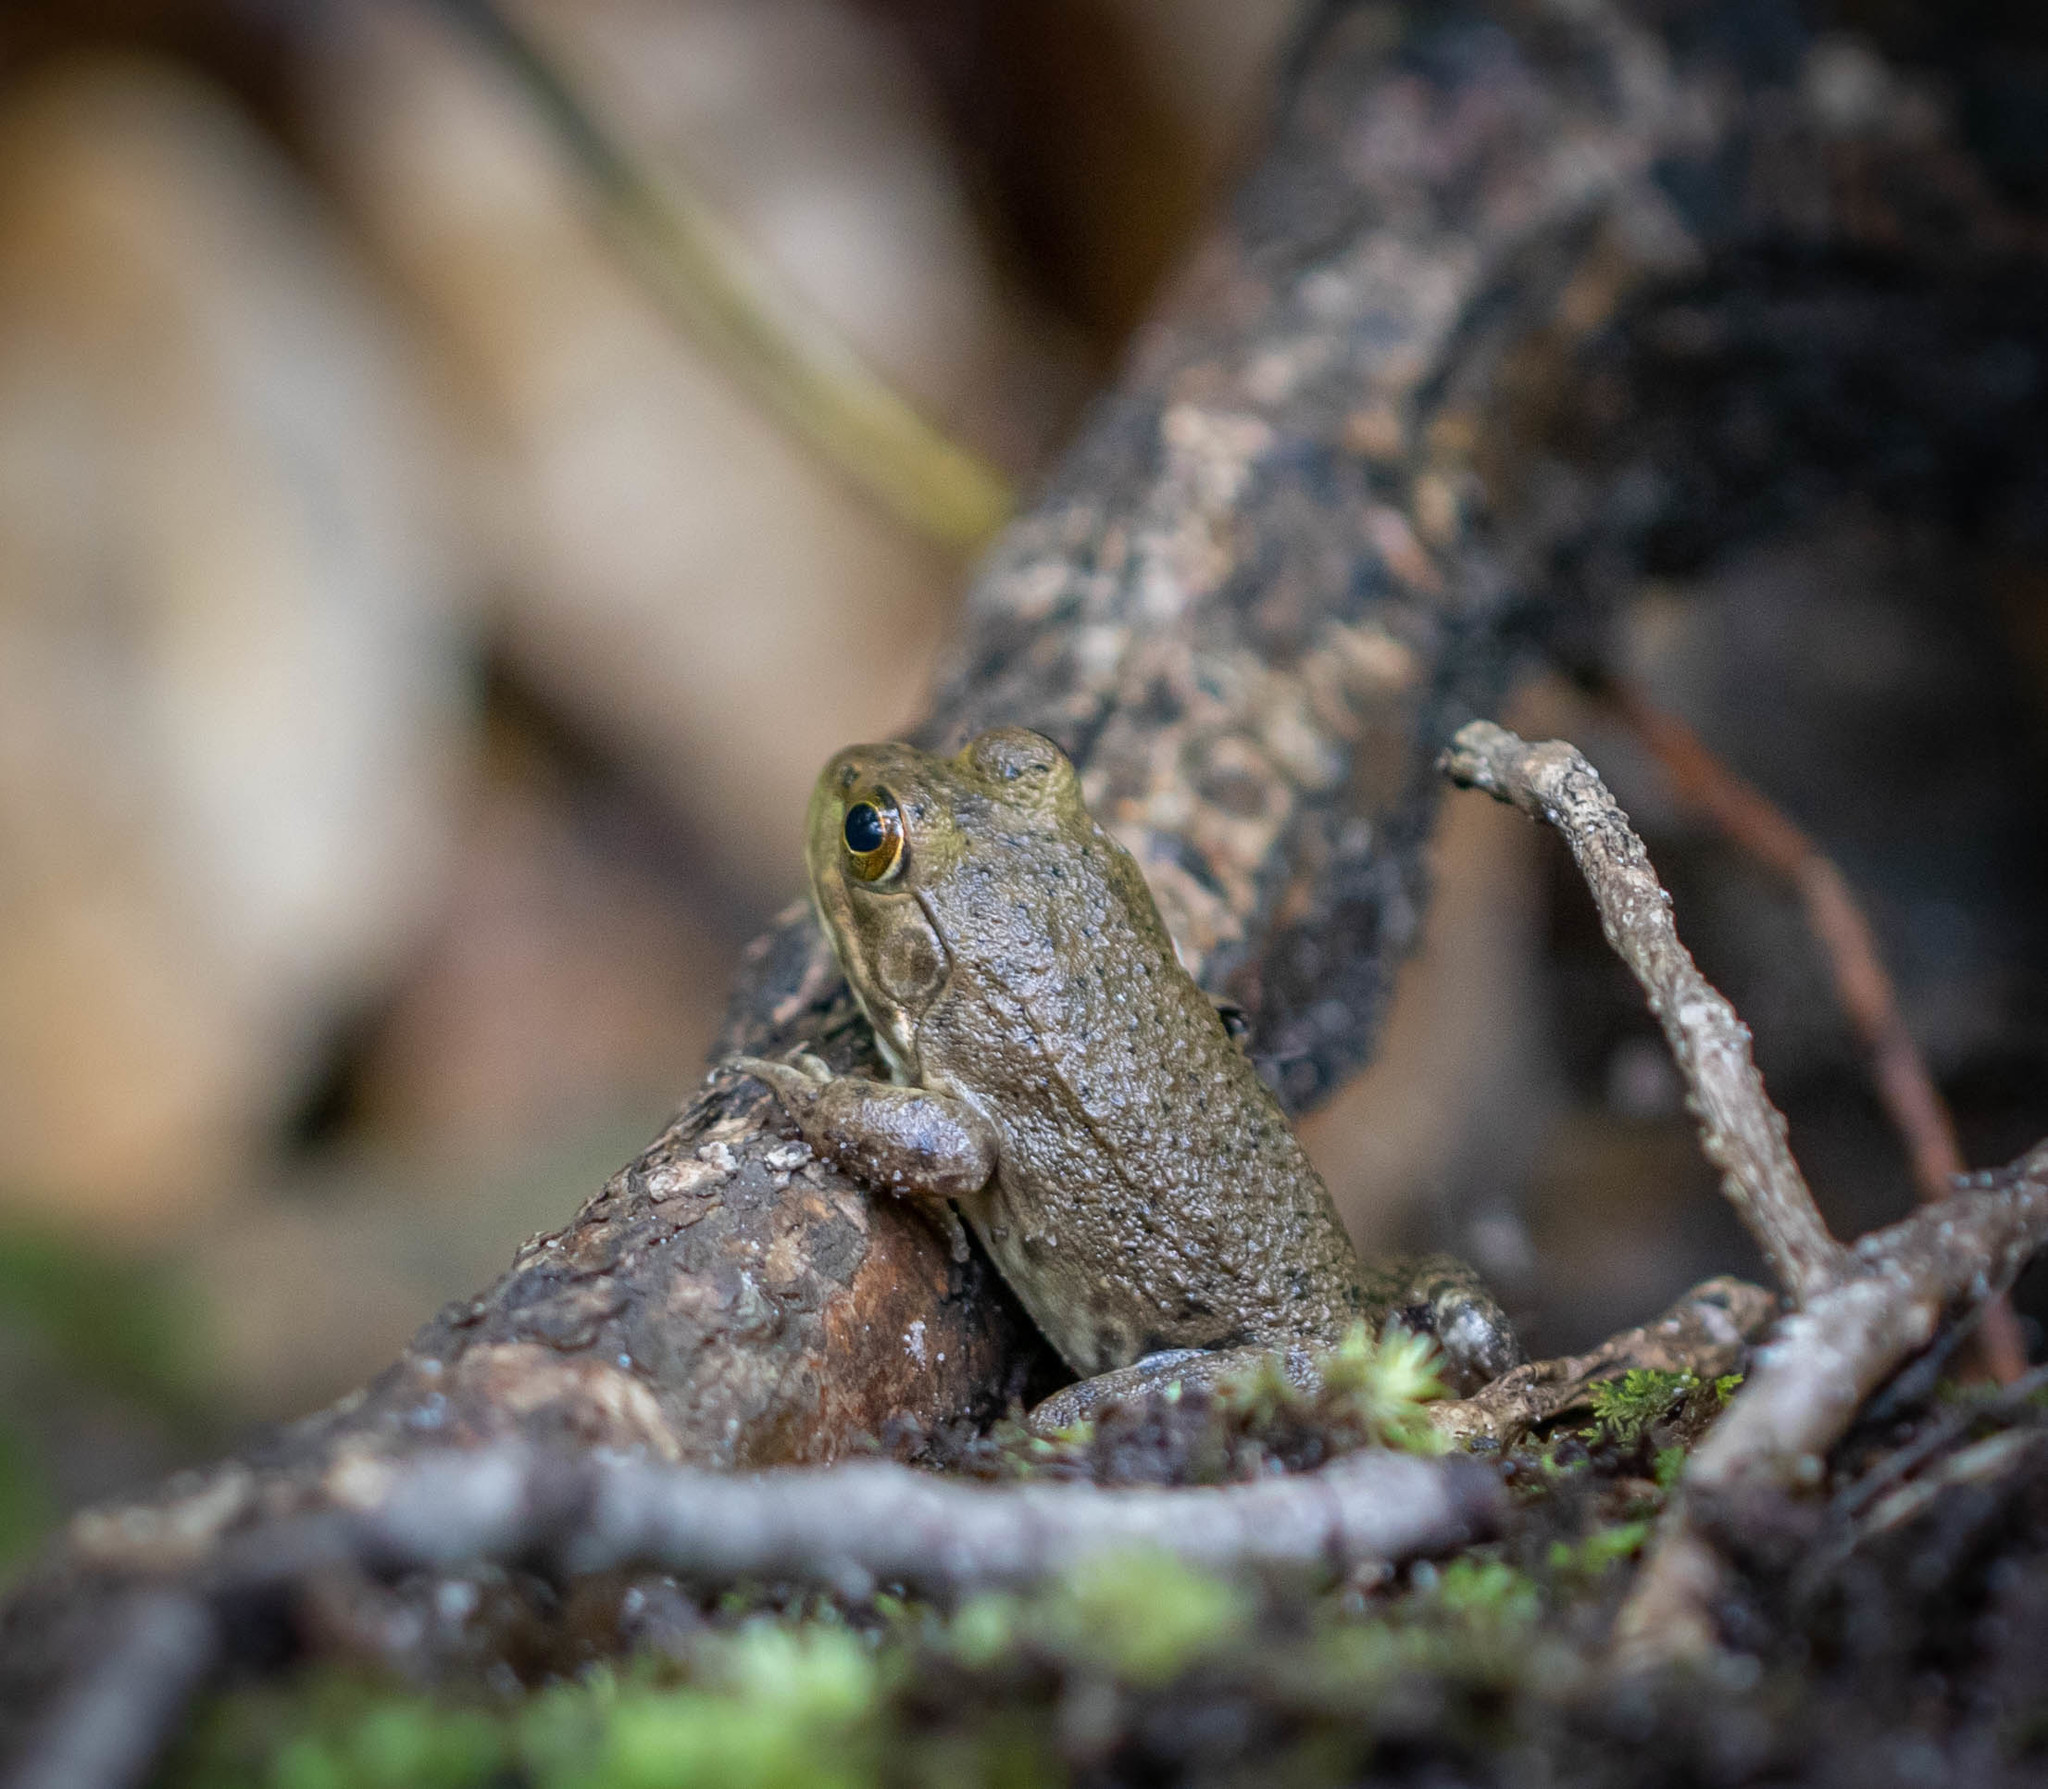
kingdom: Animalia
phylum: Chordata
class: Amphibia
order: Anura
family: Ranidae
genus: Lithobates
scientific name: Lithobates clamitans
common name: Green frog
